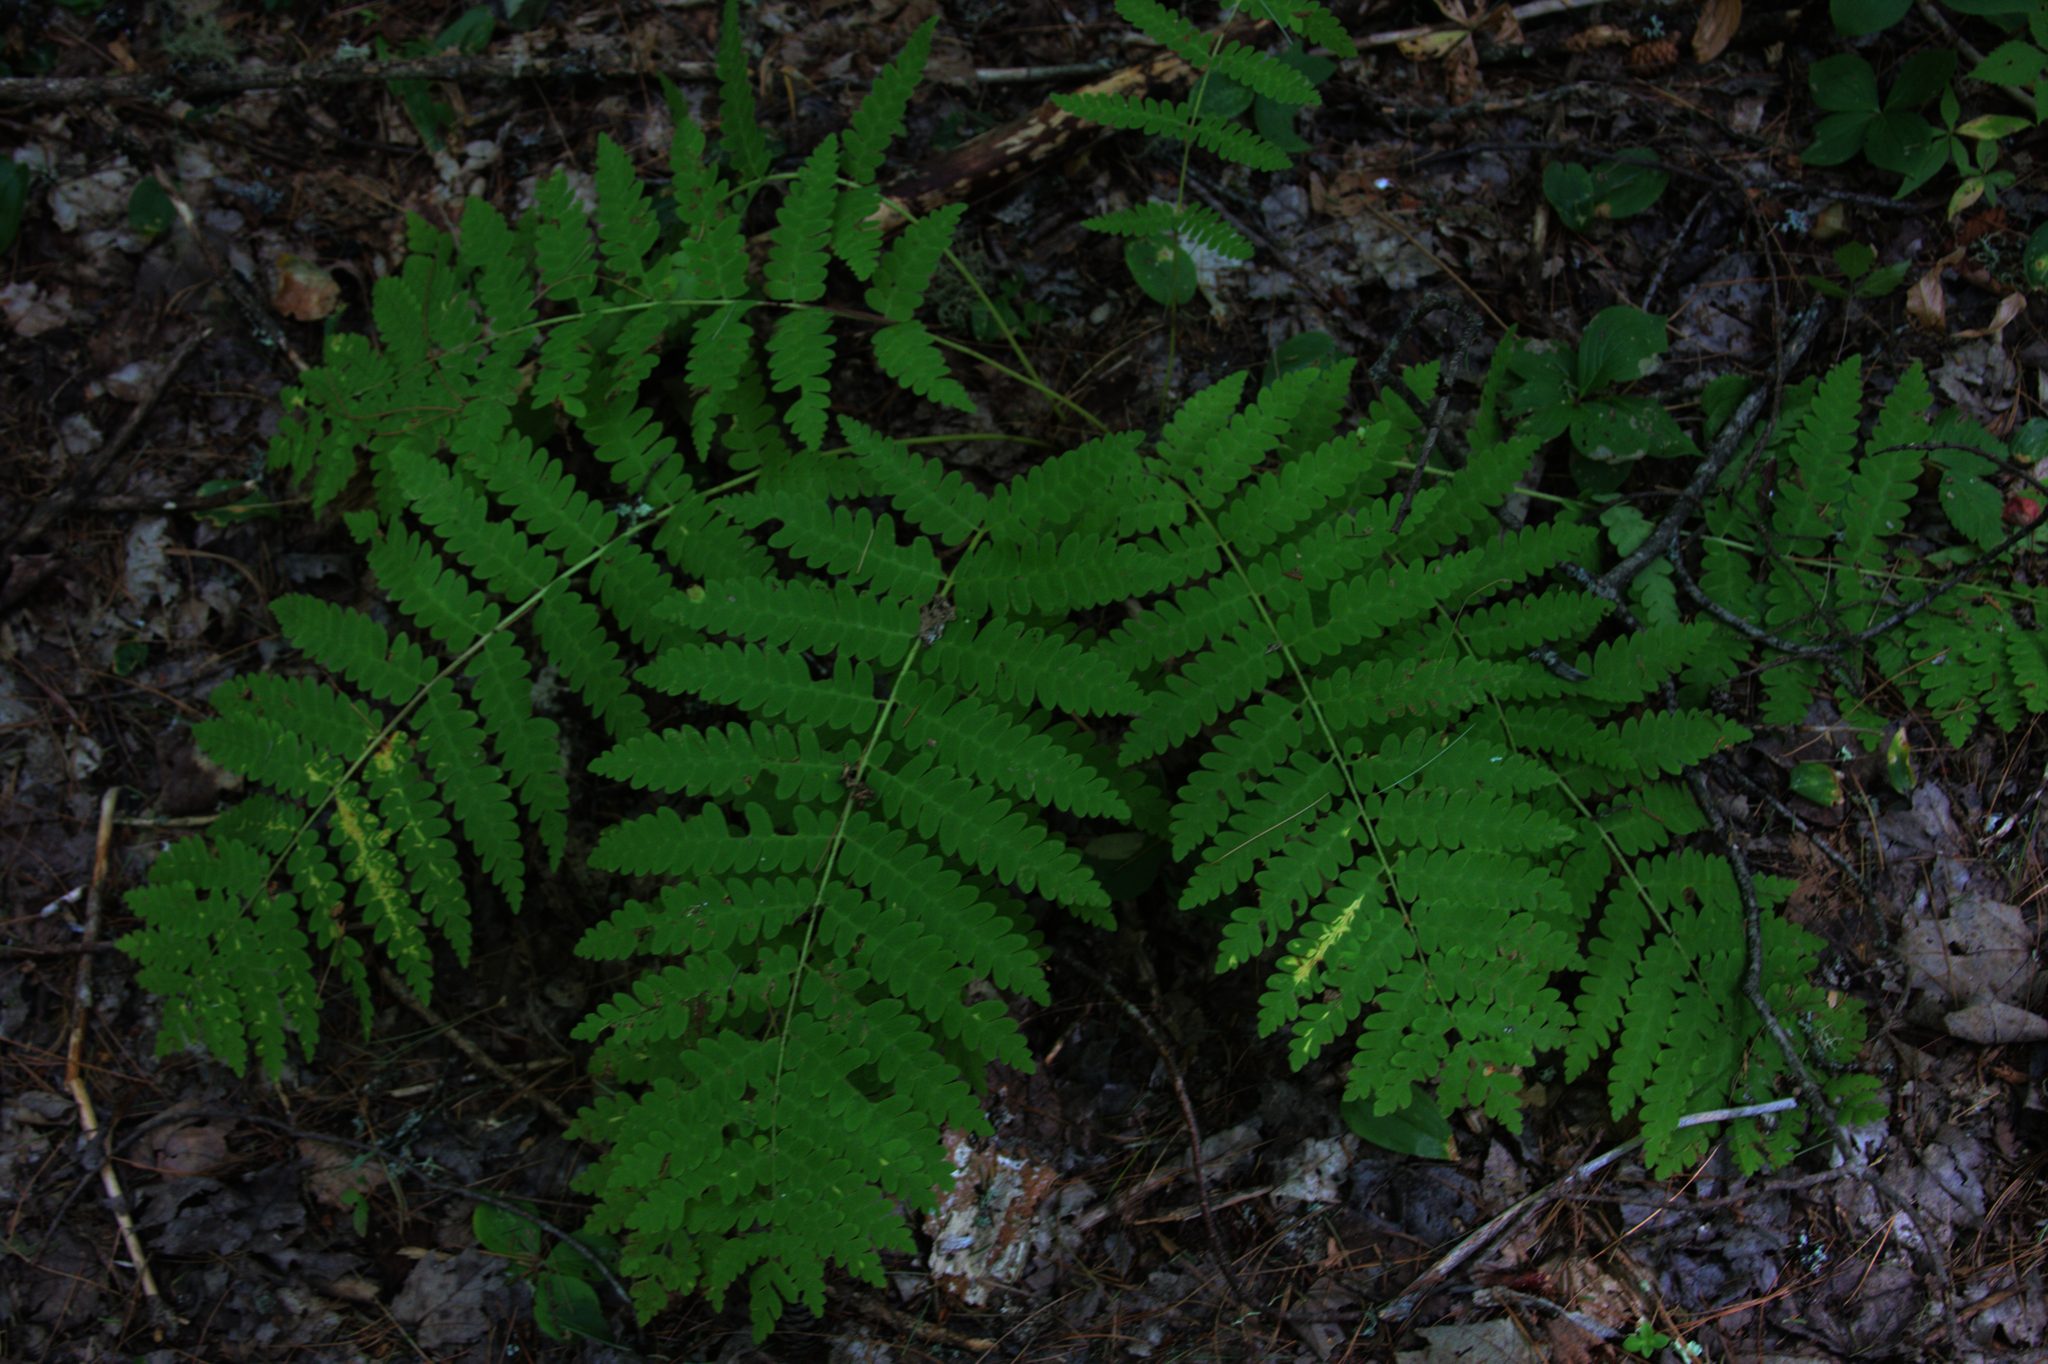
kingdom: Plantae
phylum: Tracheophyta
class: Polypodiopsida
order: Osmundales
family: Osmundaceae
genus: Claytosmunda
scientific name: Claytosmunda claytoniana
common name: Clayton's fern
